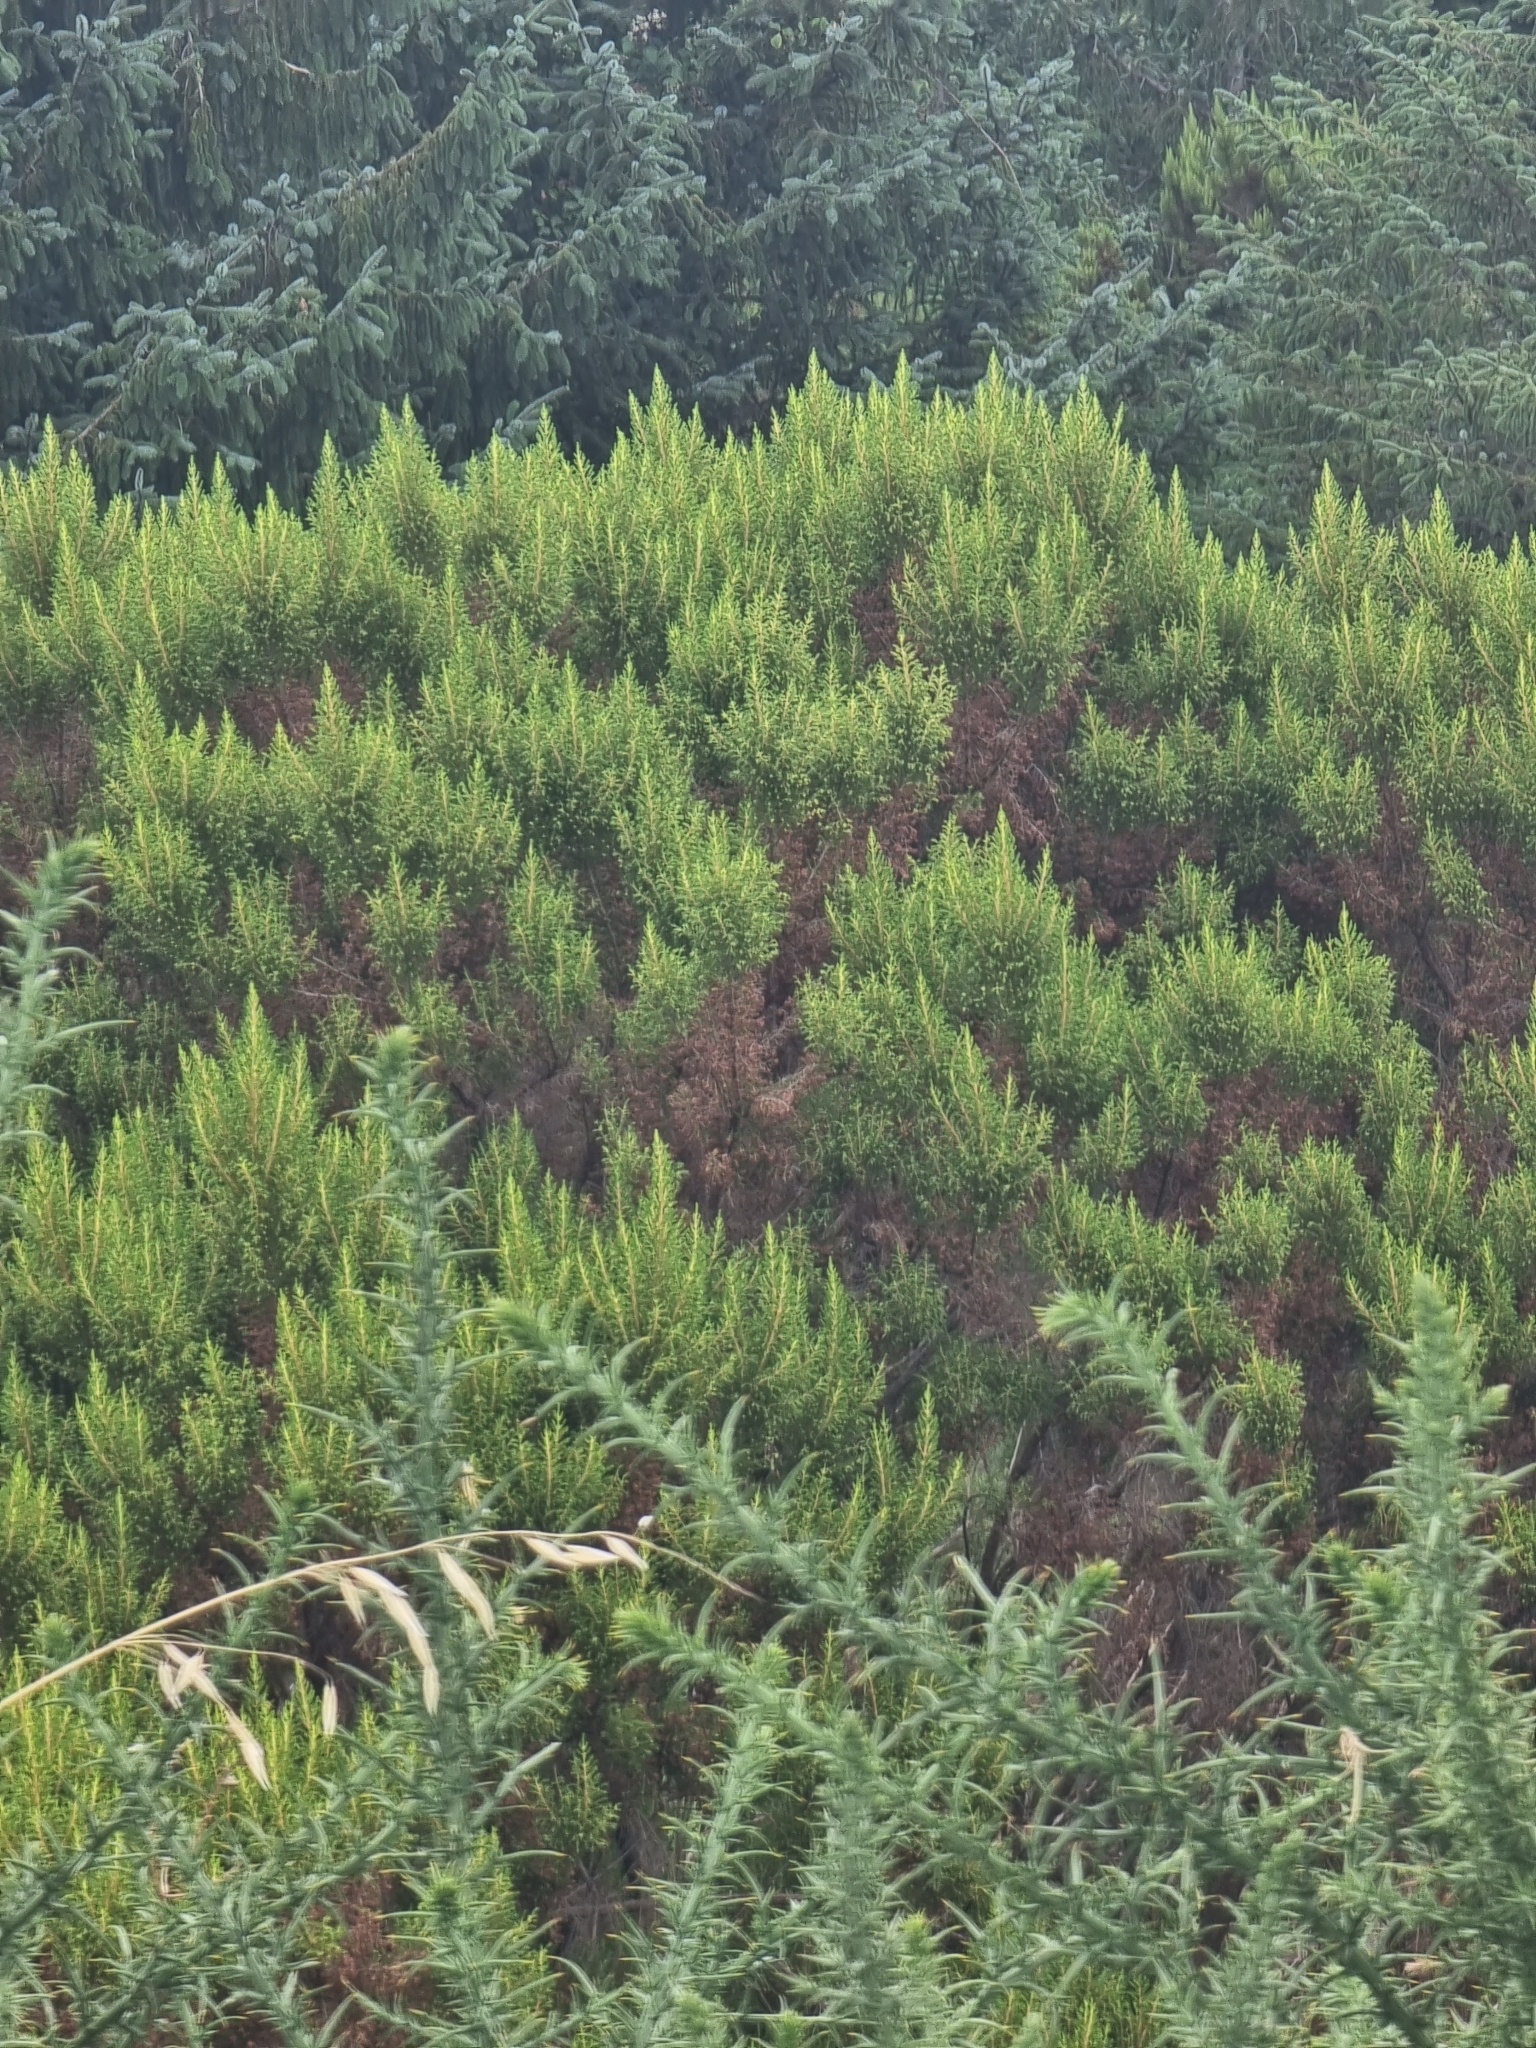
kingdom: Plantae
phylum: Tracheophyta
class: Magnoliopsida
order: Ericales
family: Ericaceae
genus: Erica
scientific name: Erica canariensis
